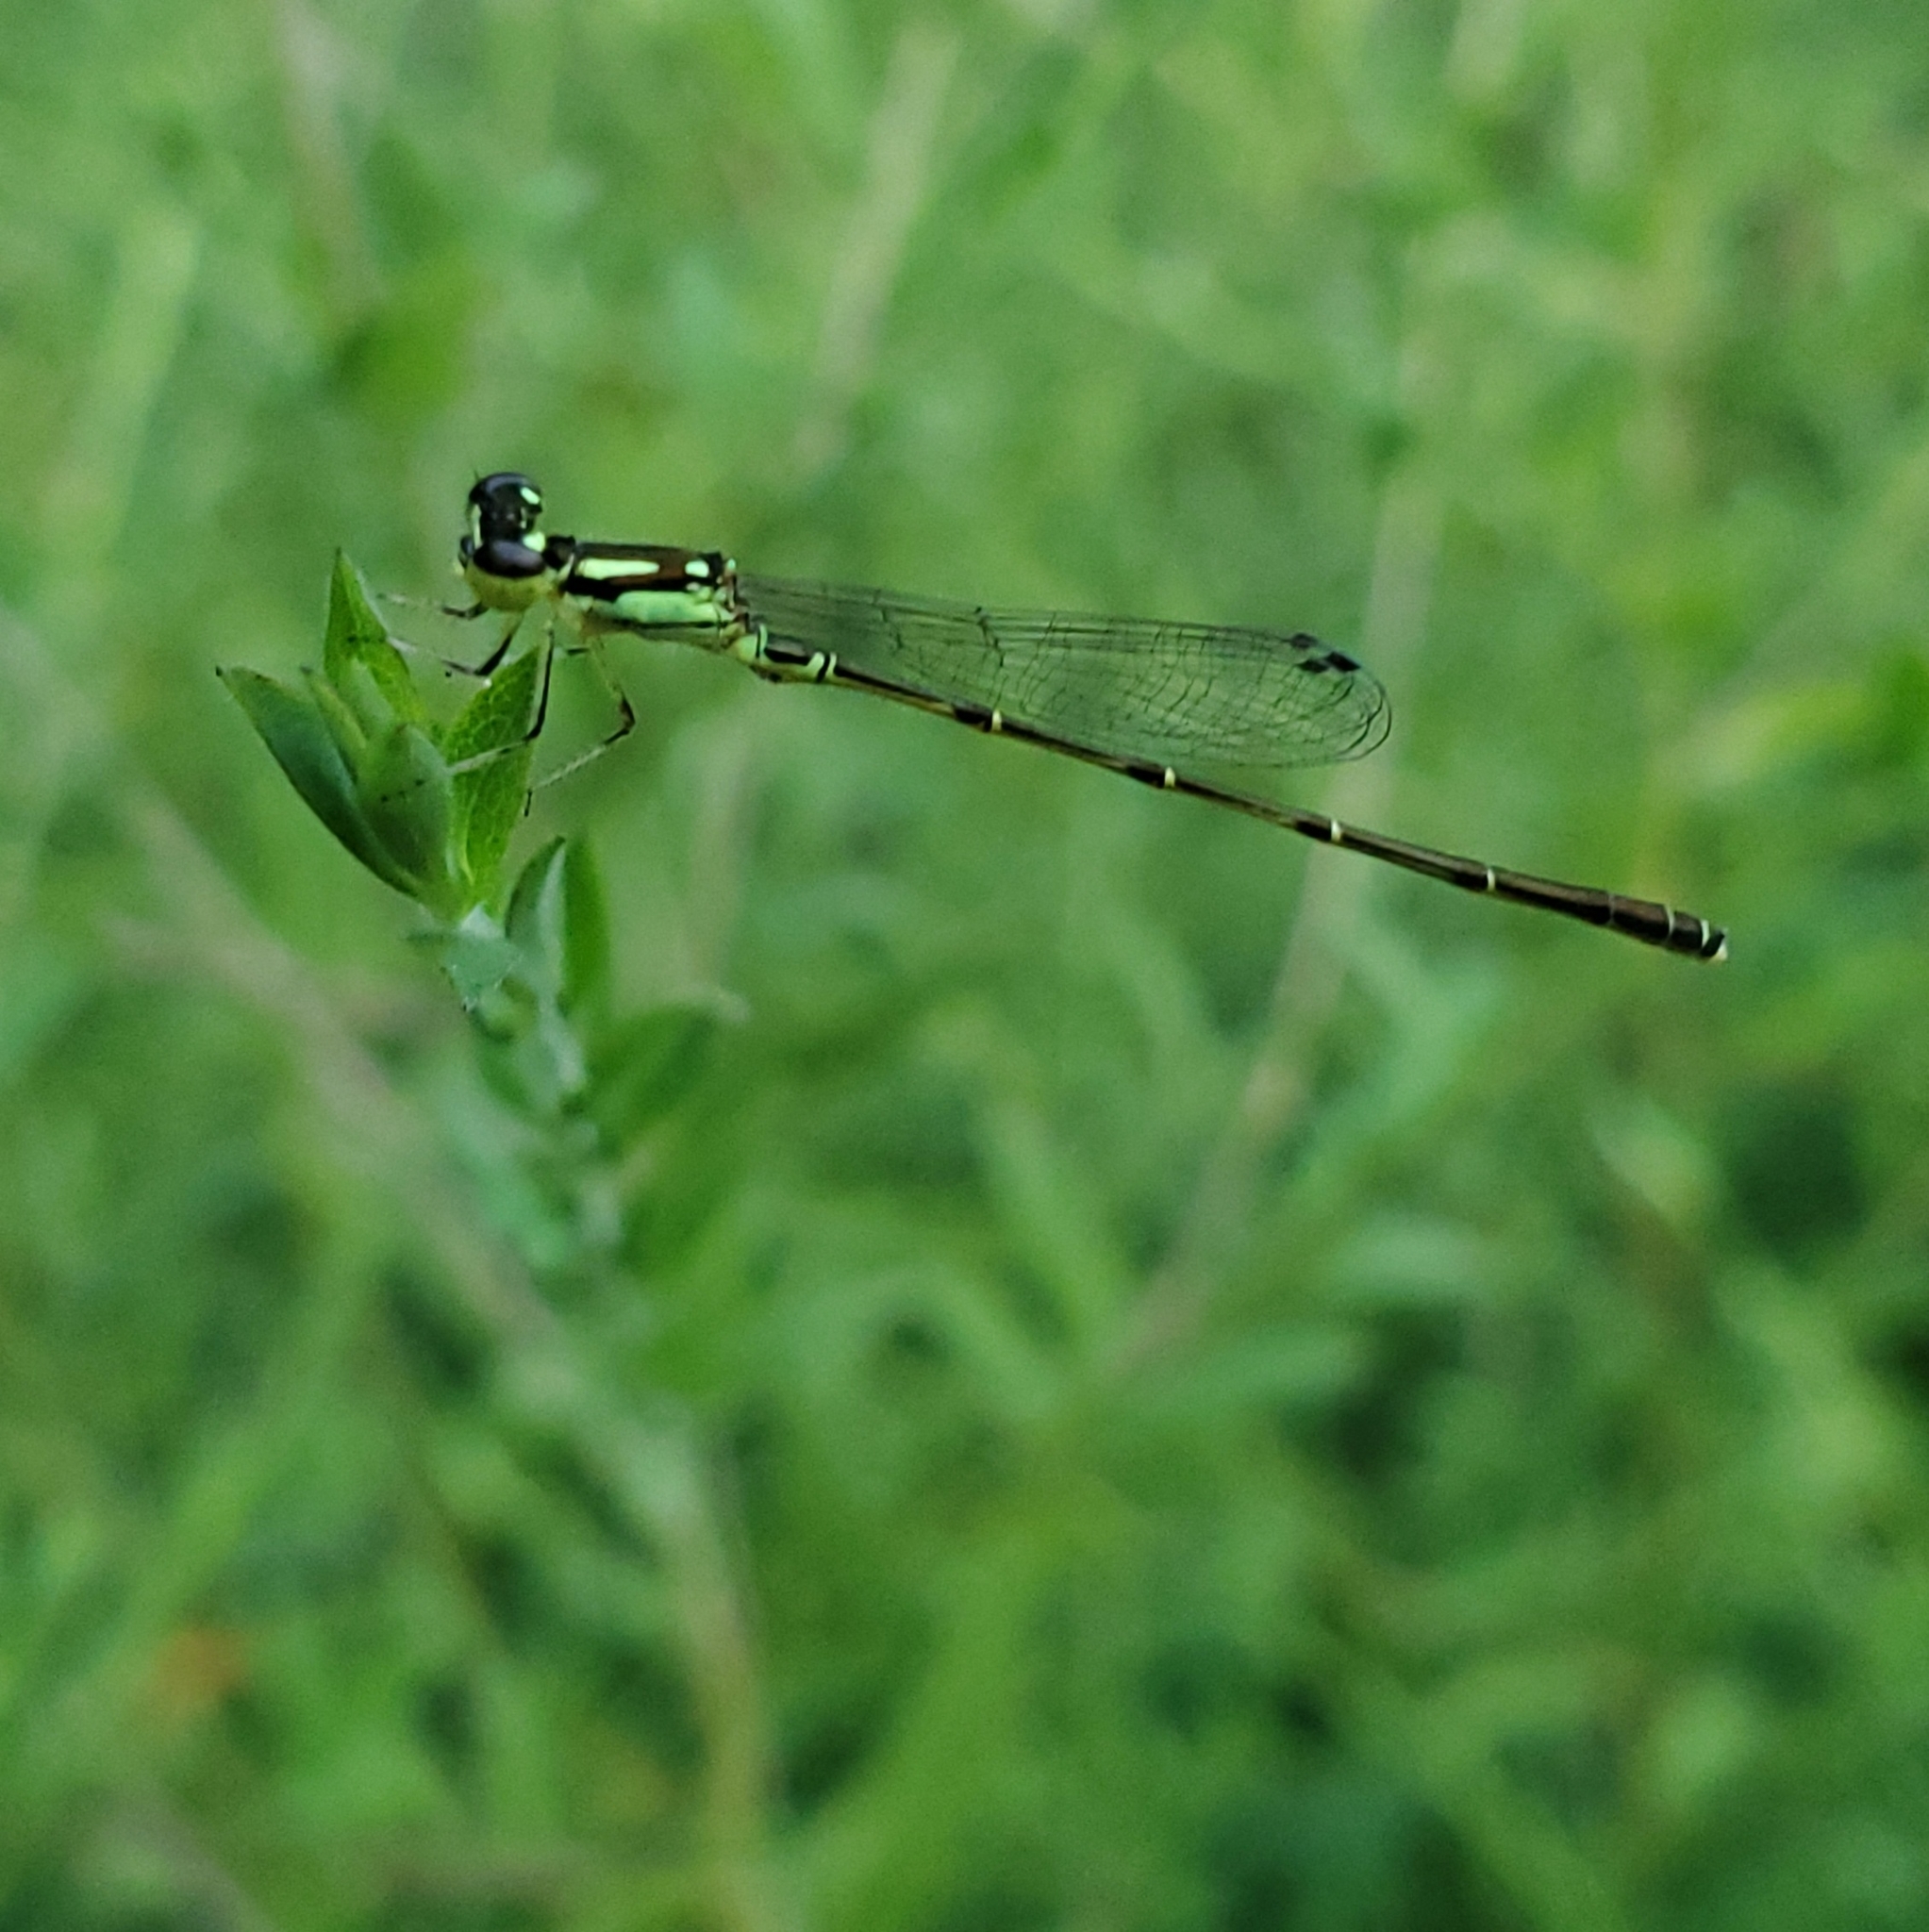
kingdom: Animalia
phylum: Arthropoda
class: Insecta
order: Odonata
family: Coenagrionidae
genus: Ischnura
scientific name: Ischnura posita
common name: Fragile forktail
